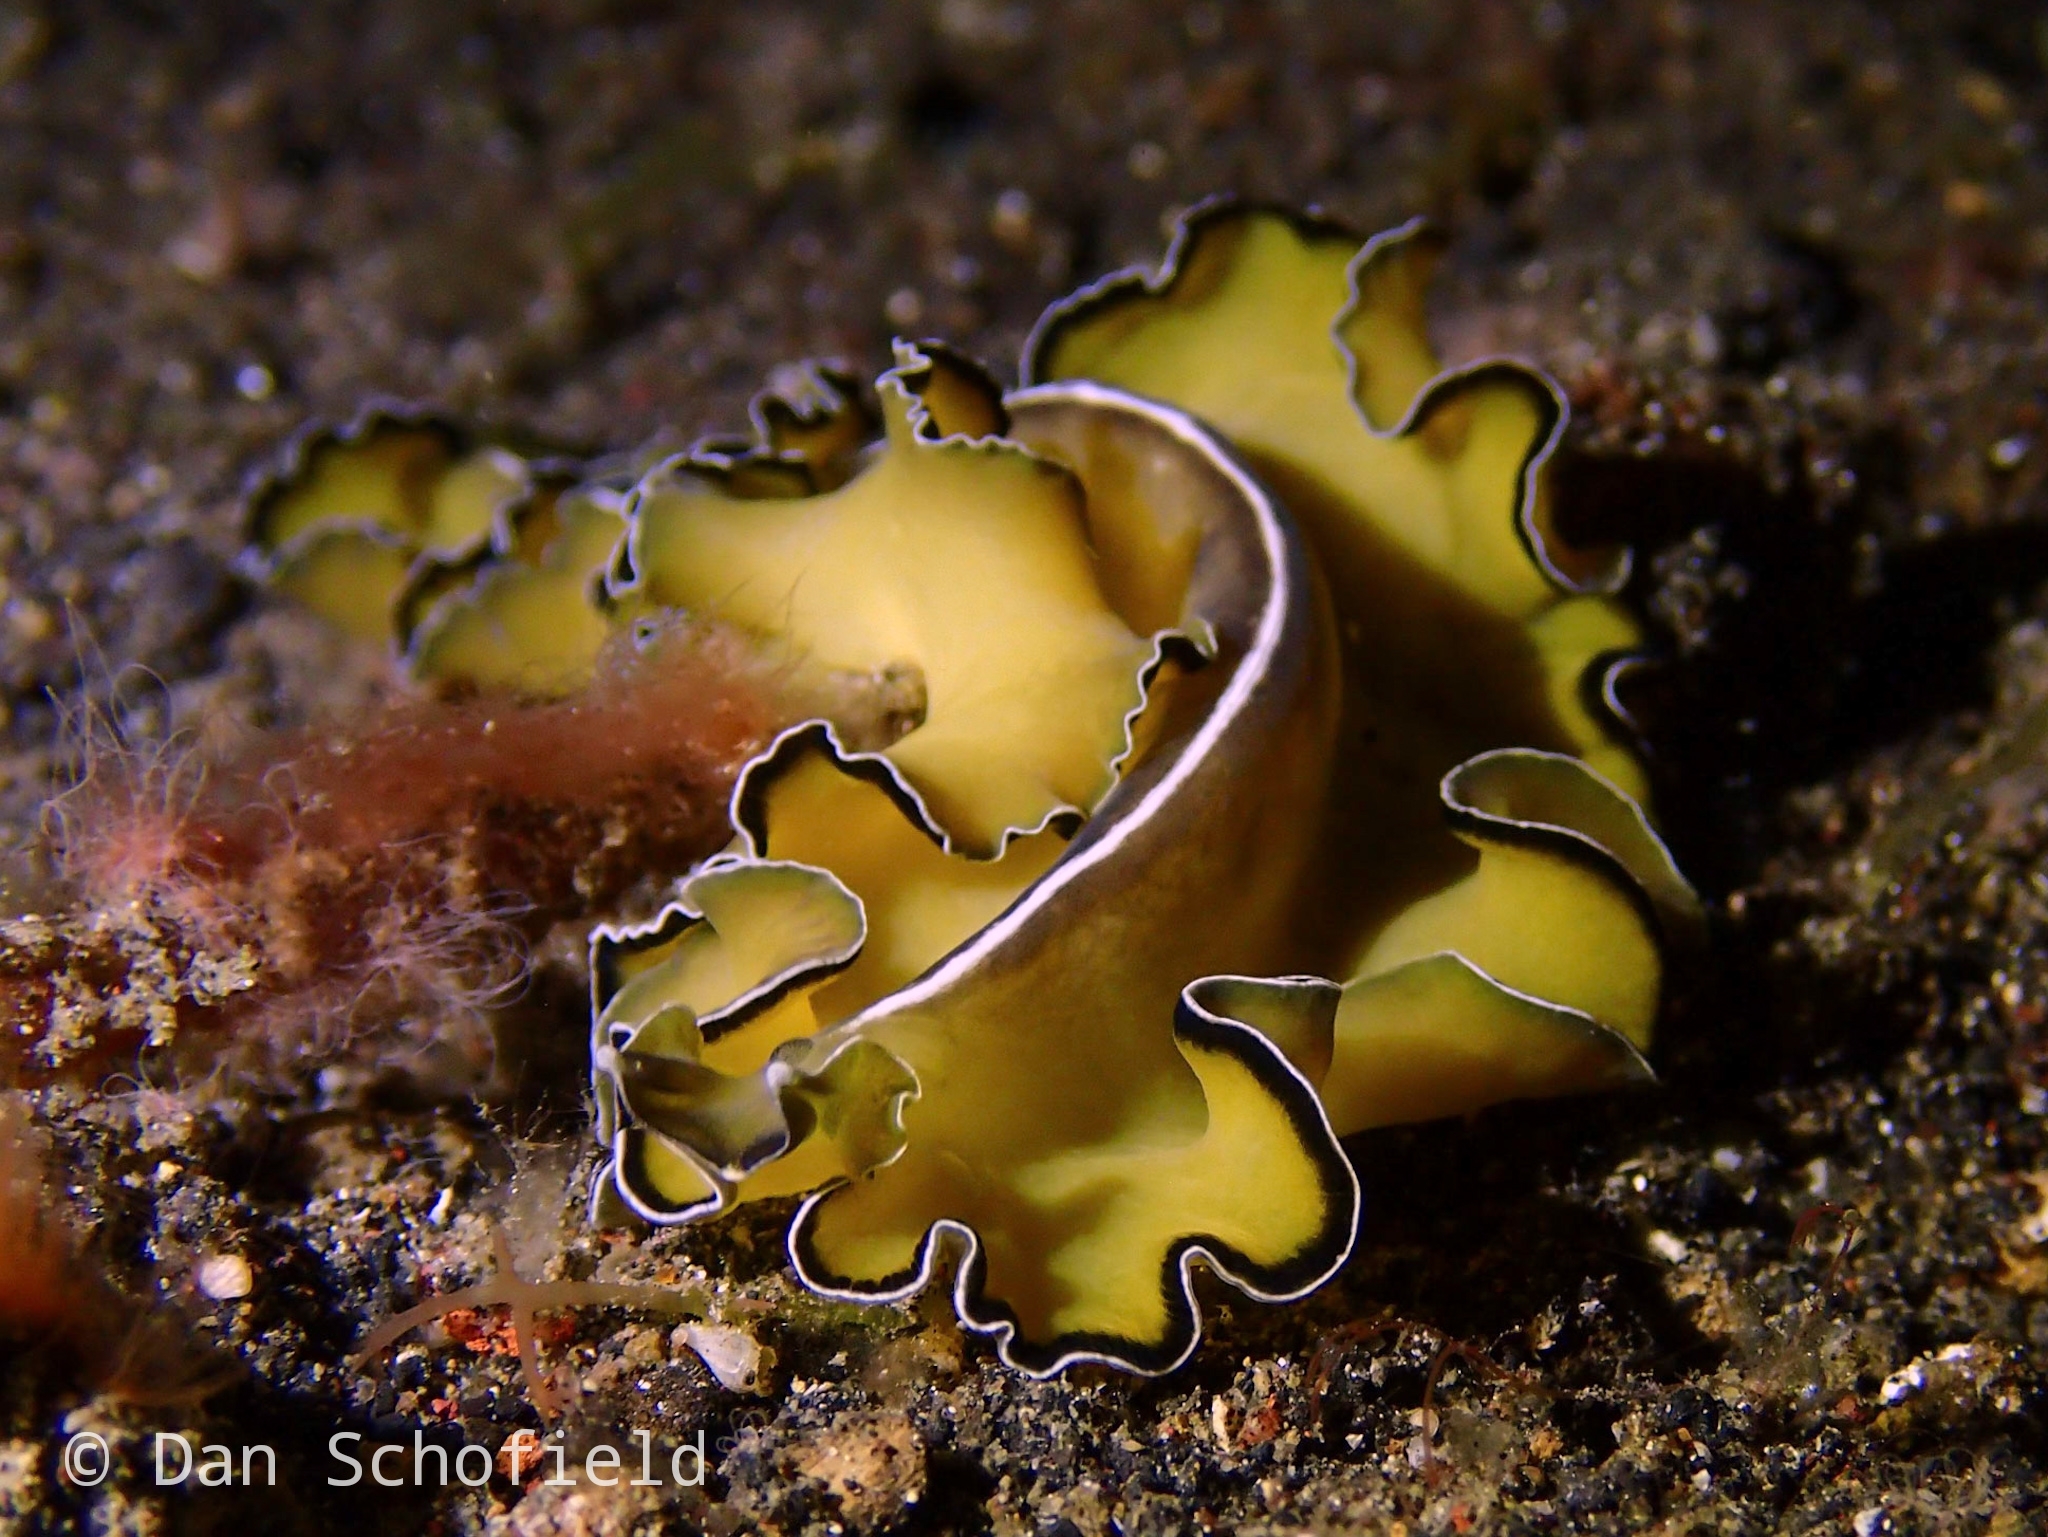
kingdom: Animalia
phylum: Platyhelminthes
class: Turbellaria
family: Pseudocerotidae
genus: Pseudobiceros
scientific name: Pseudobiceros flowersi
